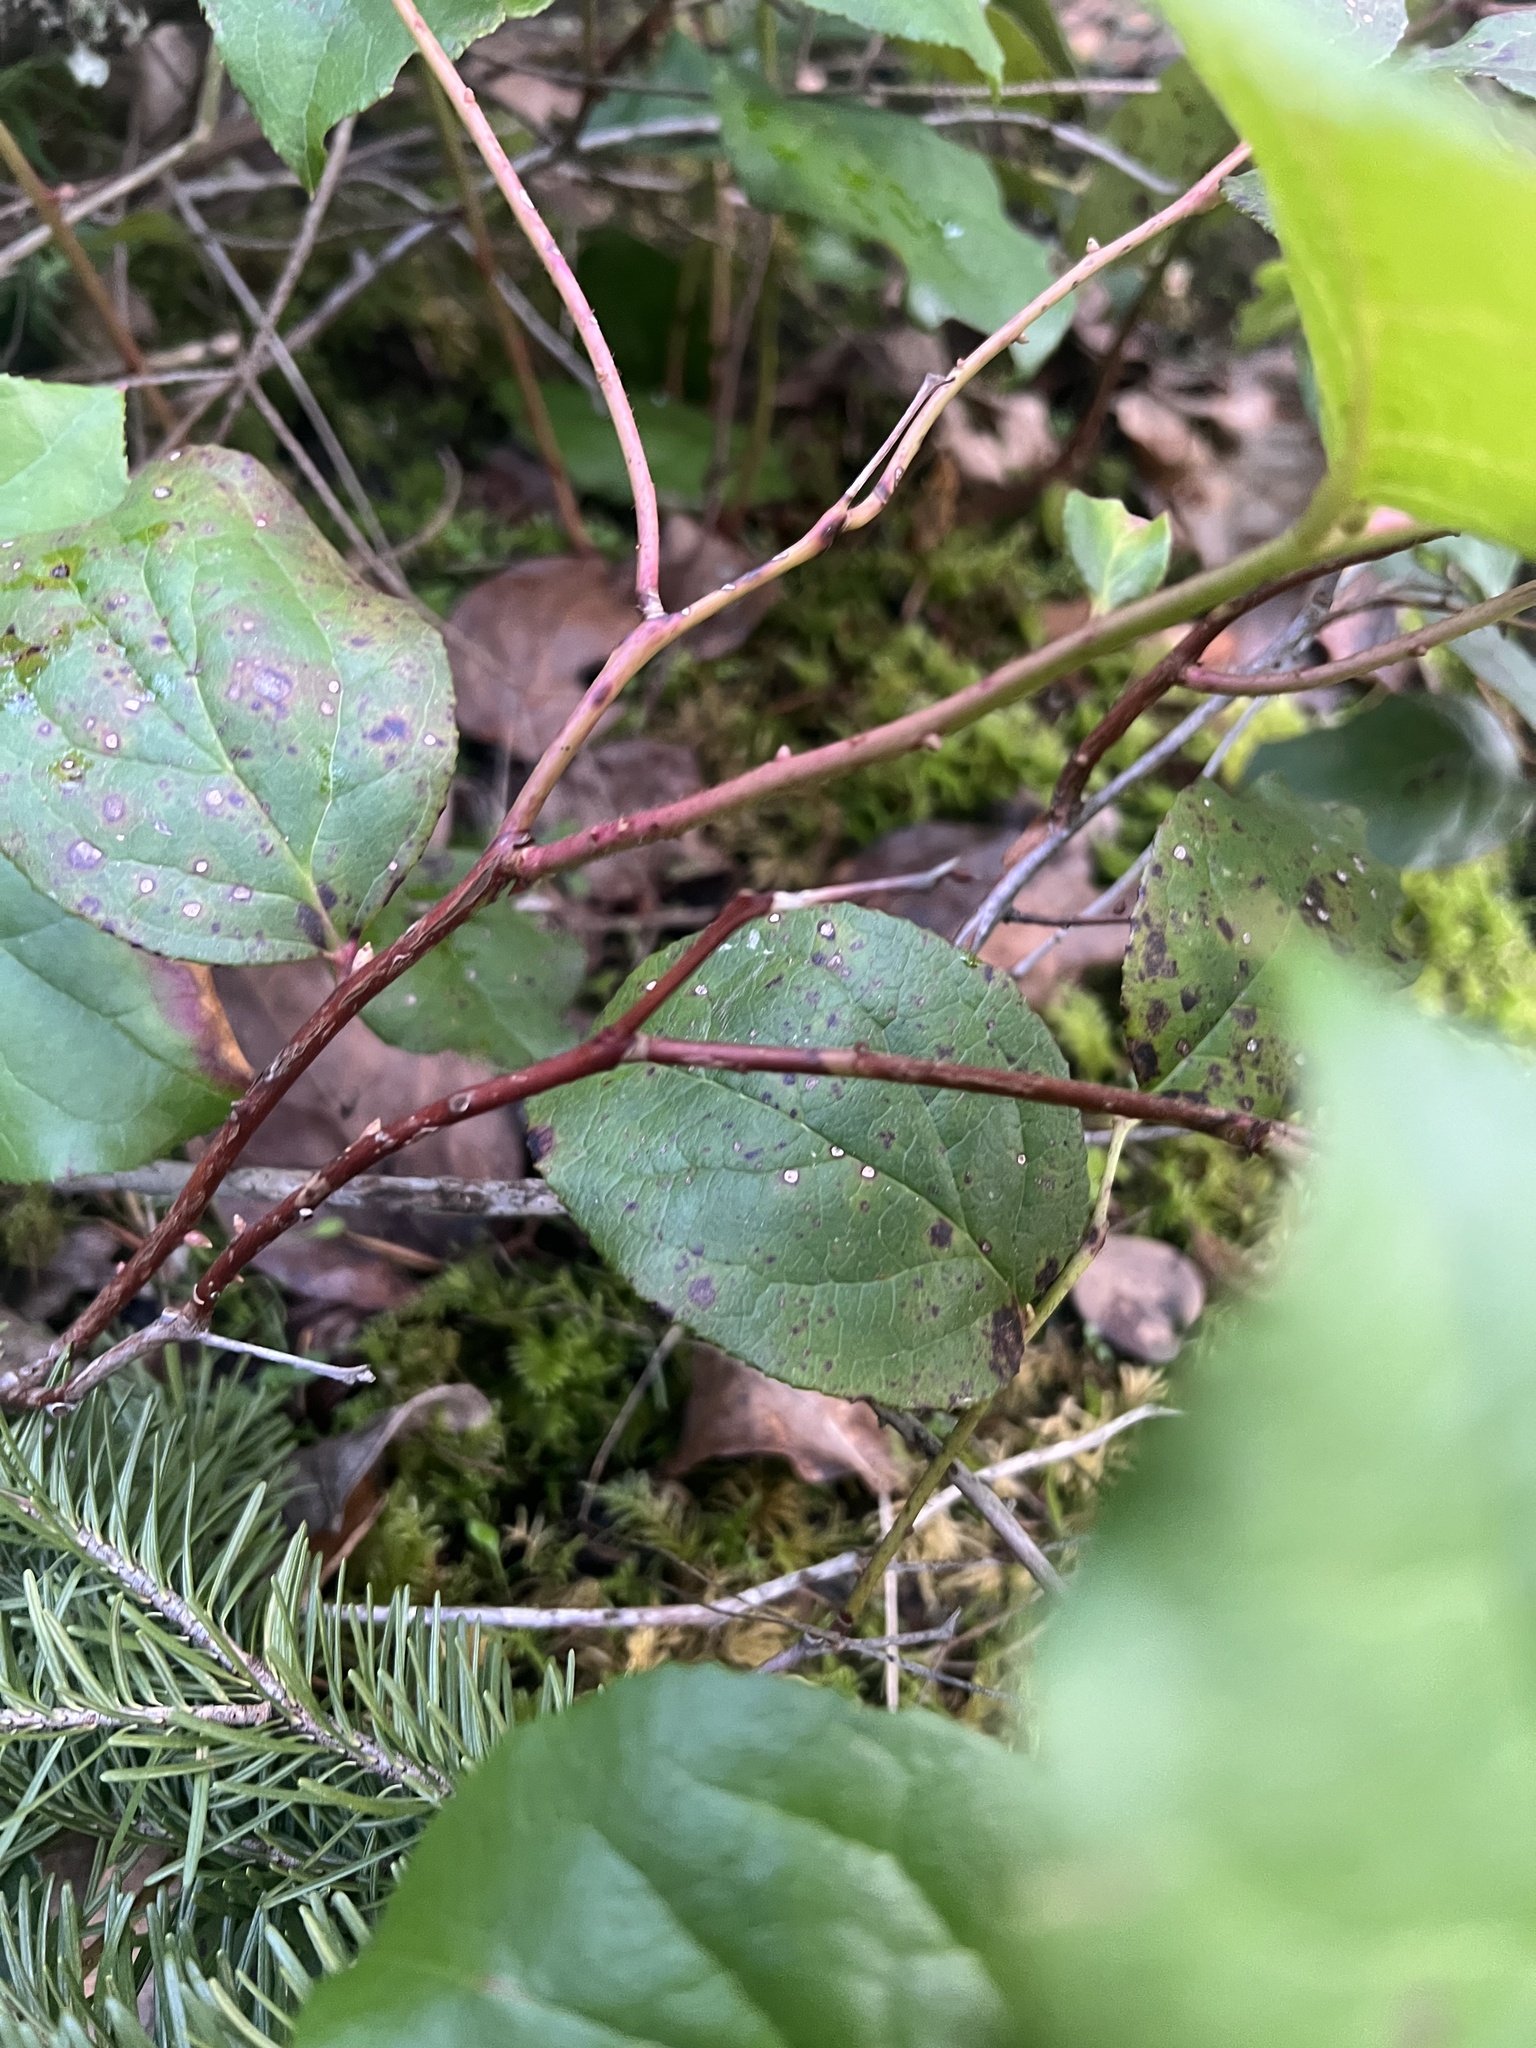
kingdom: Plantae
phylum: Tracheophyta
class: Magnoliopsida
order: Ericales
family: Ericaceae
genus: Gaultheria
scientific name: Gaultheria shallon
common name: Shallon
